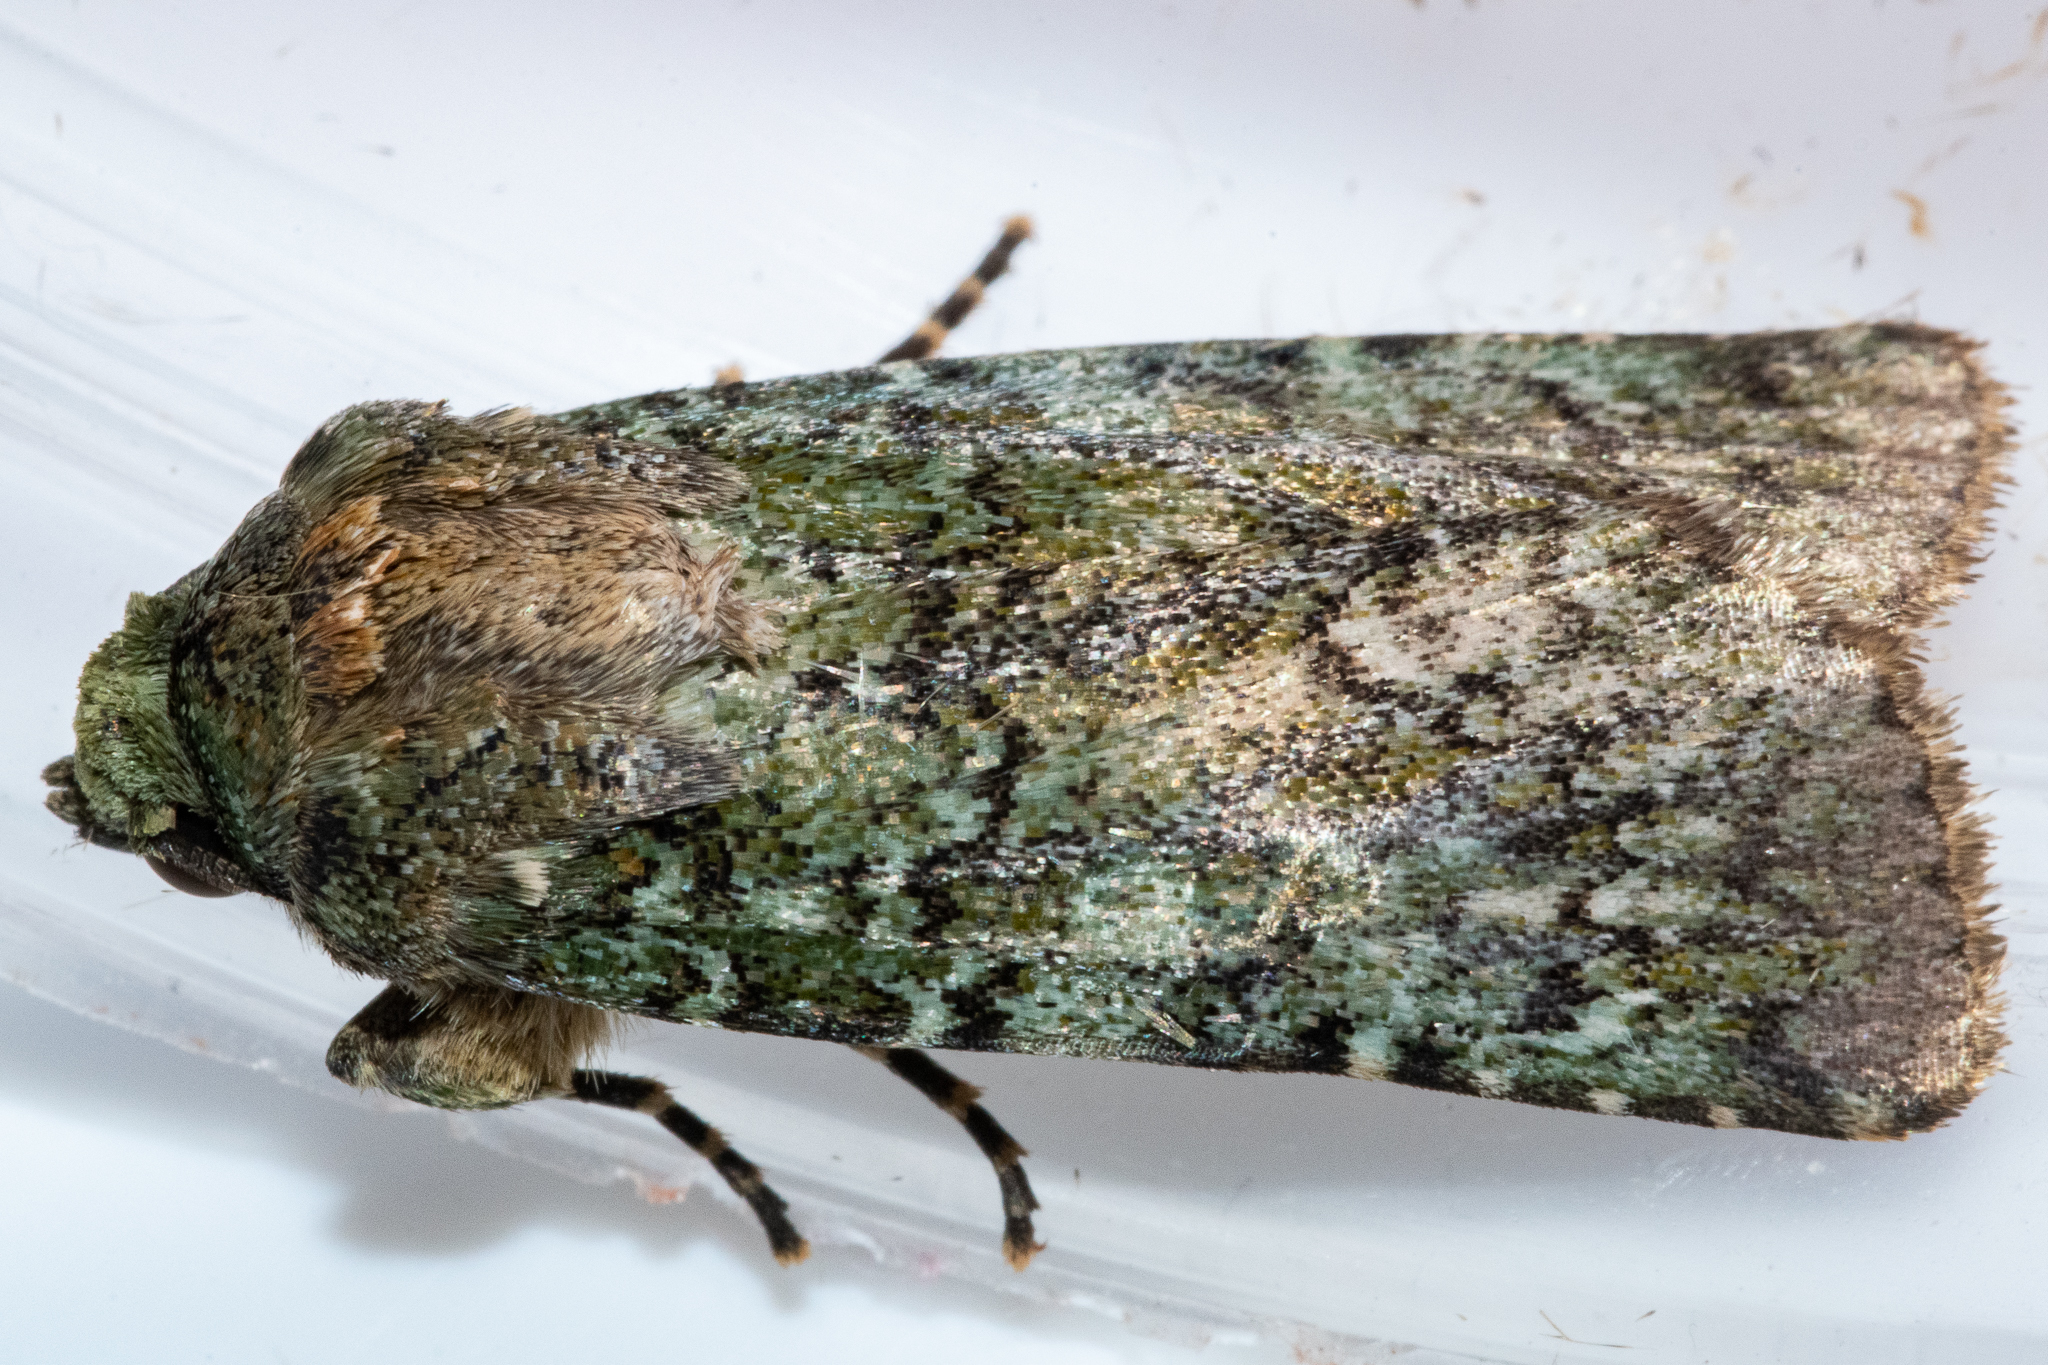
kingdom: Animalia
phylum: Arthropoda
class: Insecta
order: Lepidoptera
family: Noctuidae
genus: Klugeana
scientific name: Klugeana philoxalis
